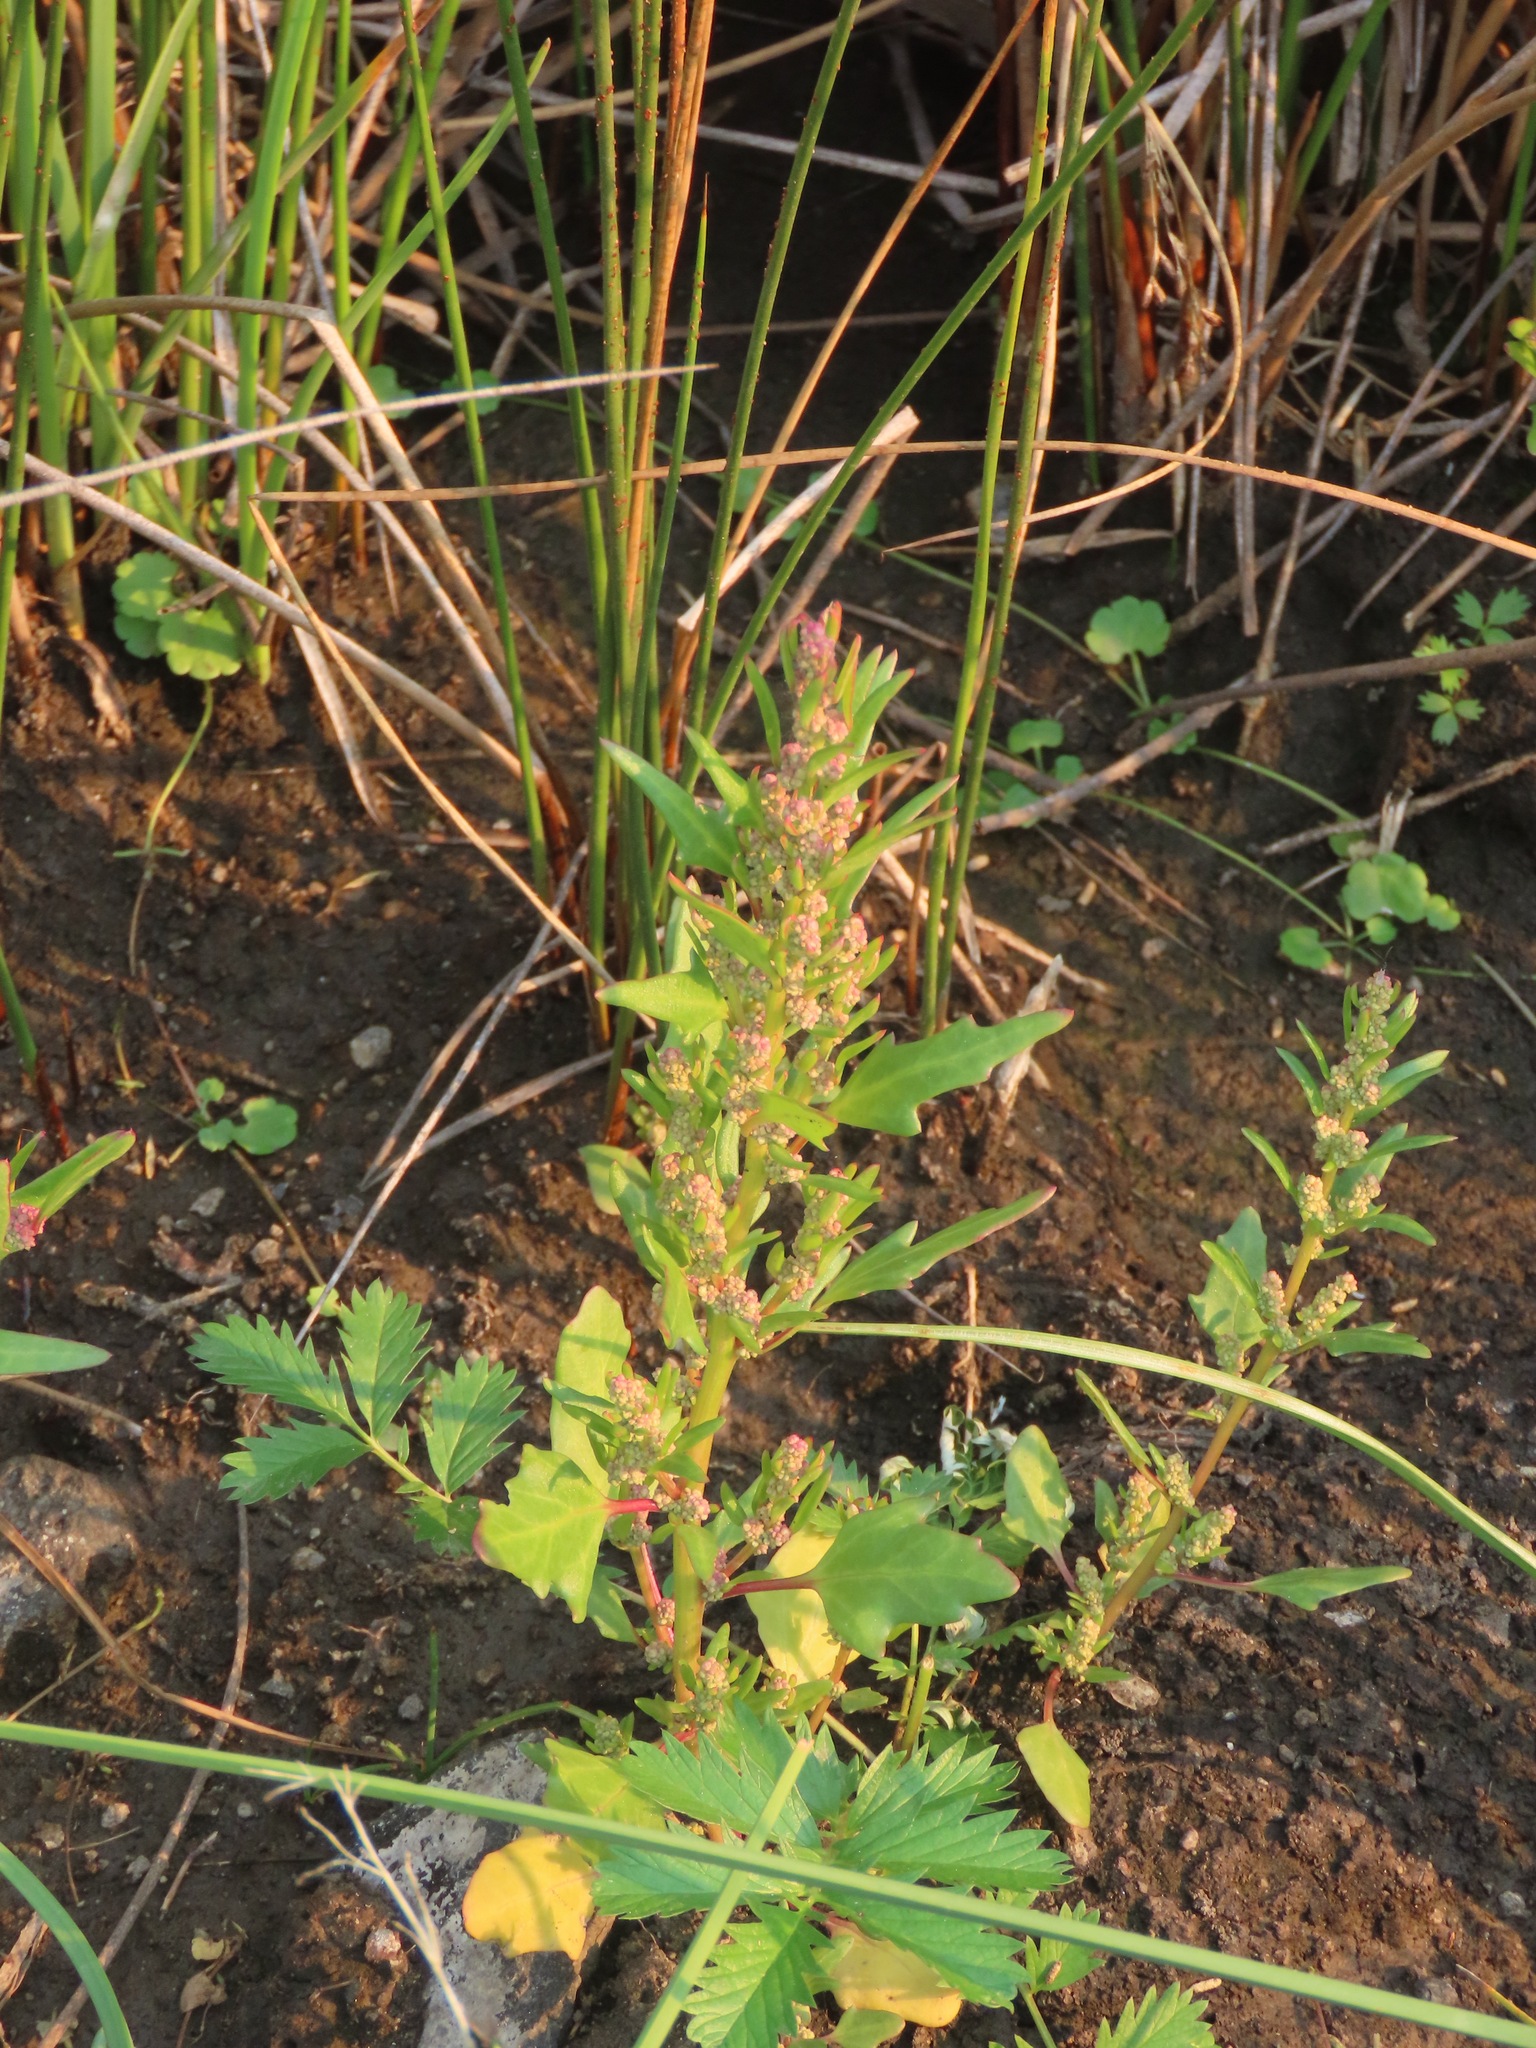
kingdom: Plantae
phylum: Tracheophyta
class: Magnoliopsida
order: Caryophyllales
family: Amaranthaceae
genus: Chenopodium
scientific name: Chenopodium album
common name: Fat-hen
